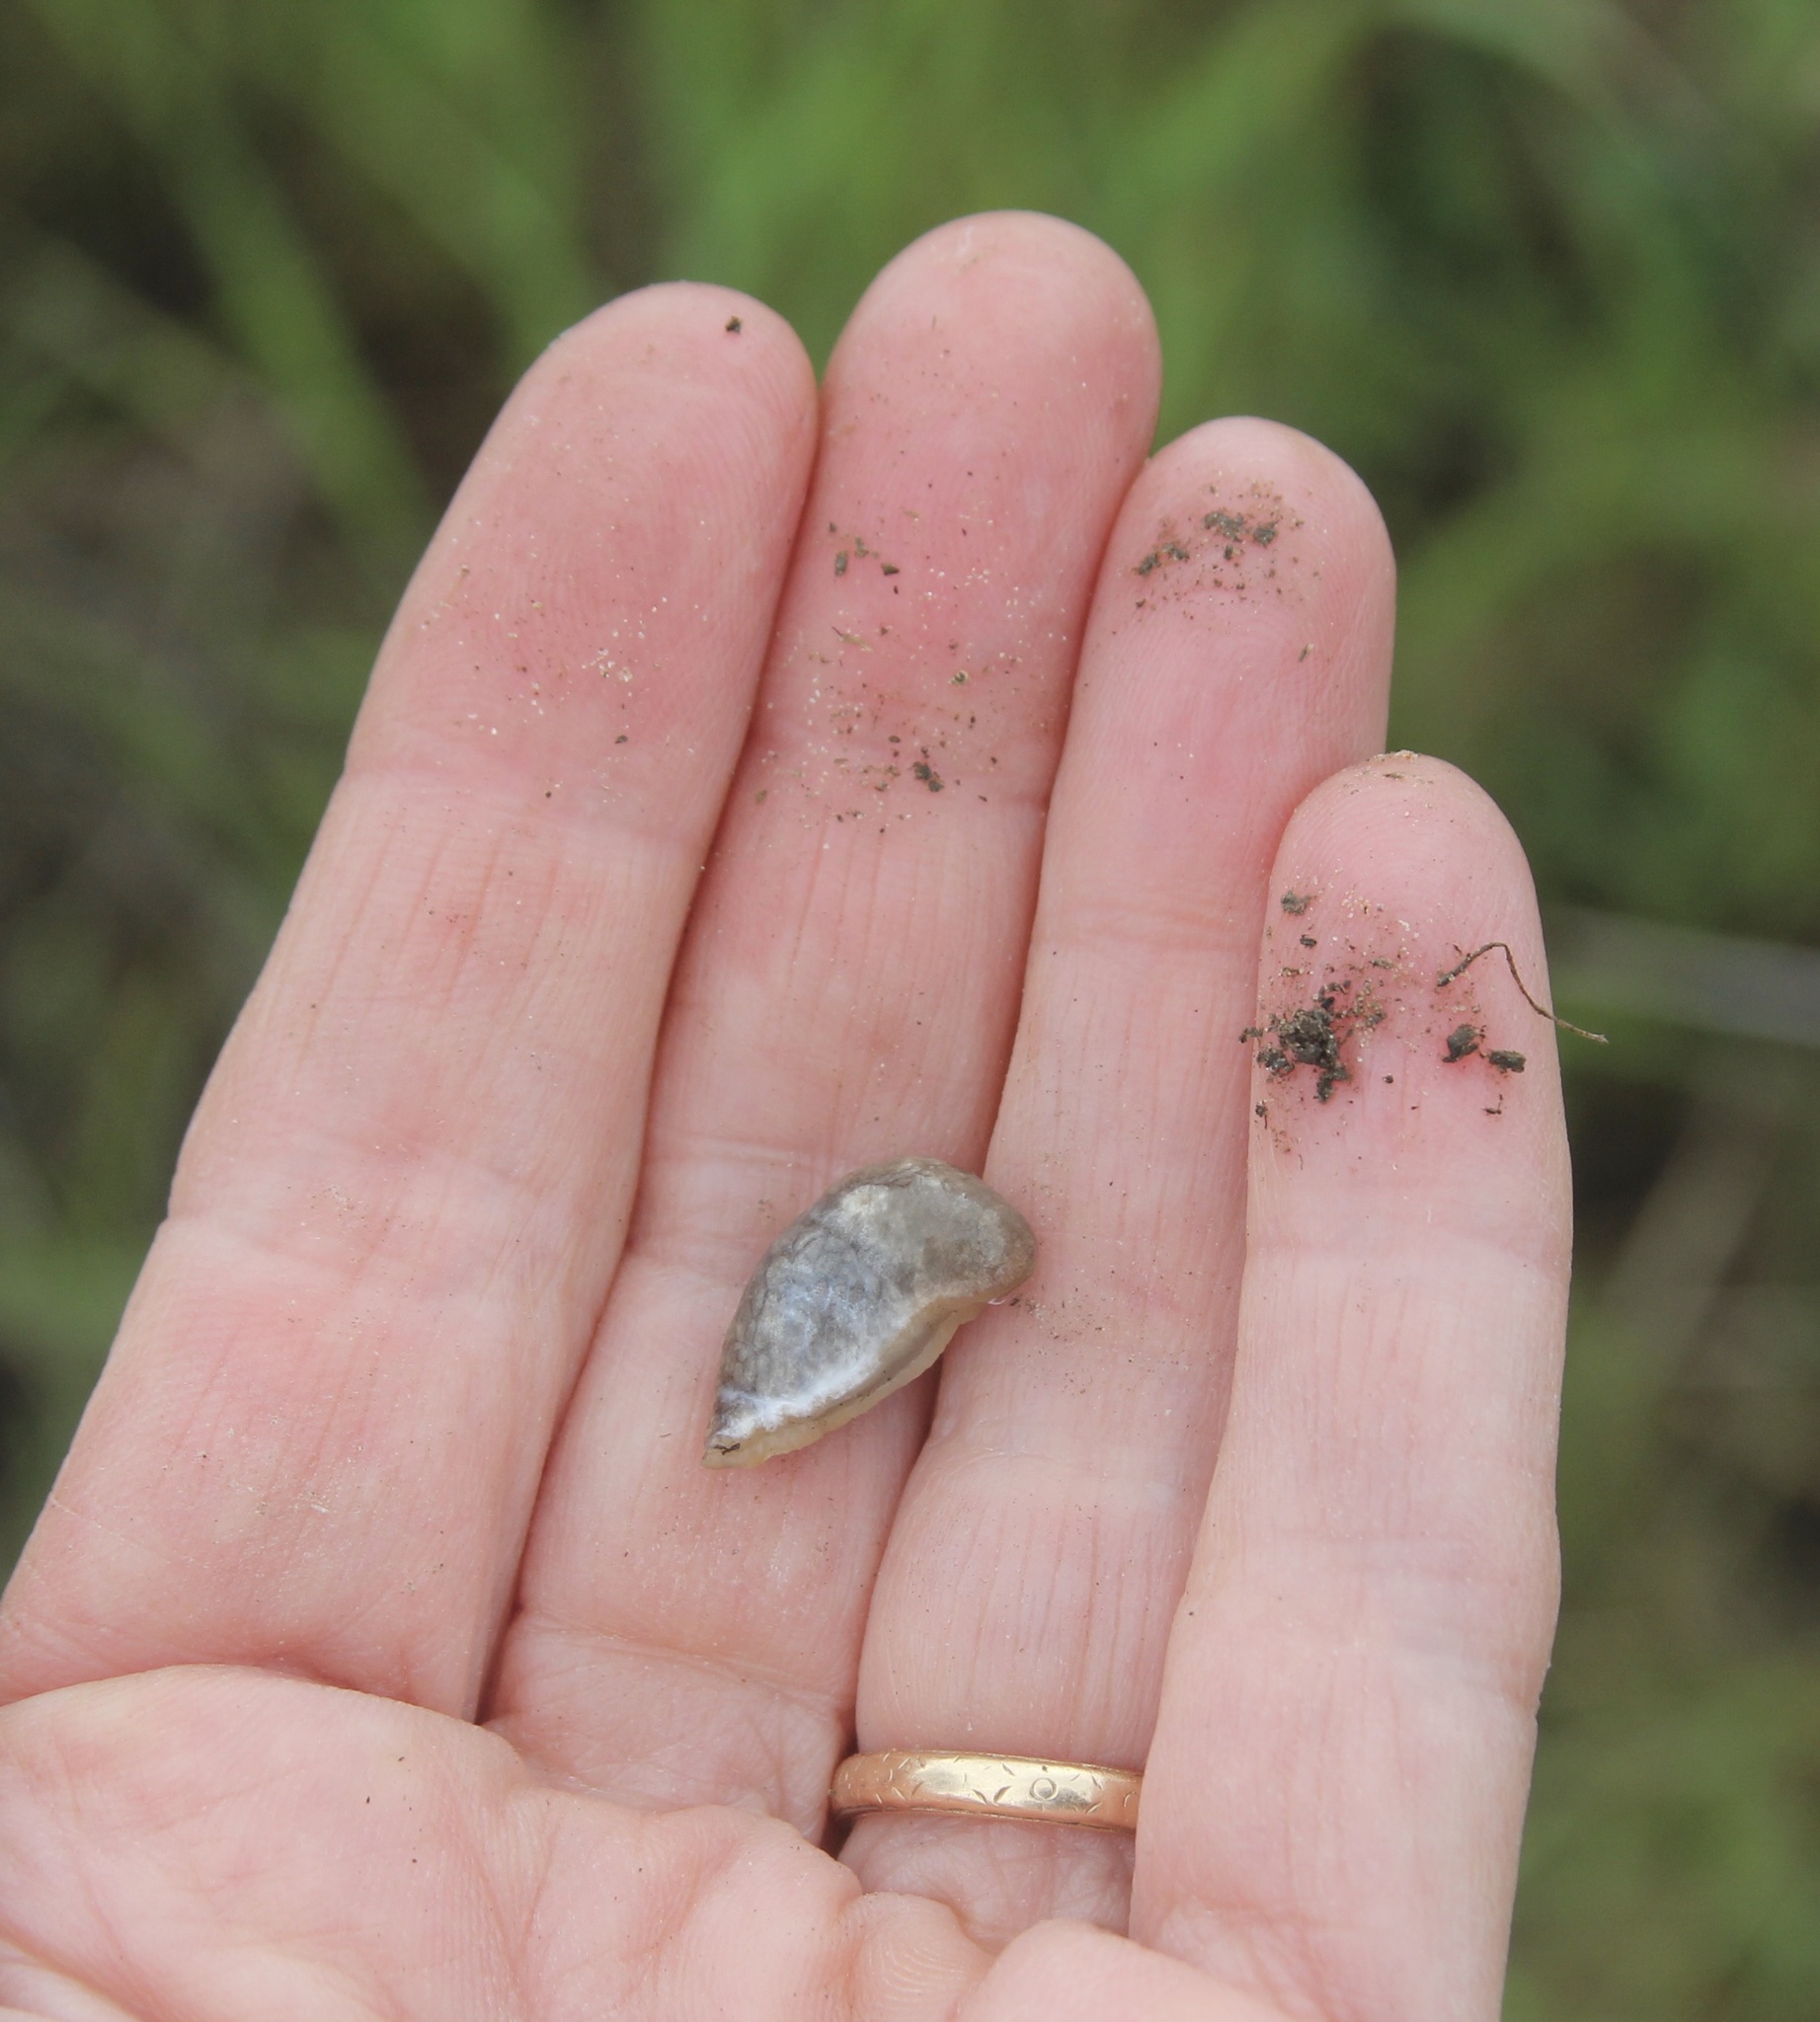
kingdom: Animalia
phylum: Mollusca
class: Gastropoda
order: Stylommatophora
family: Agriolimacidae
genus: Deroceras
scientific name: Deroceras reticulatum
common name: Gray field slug
